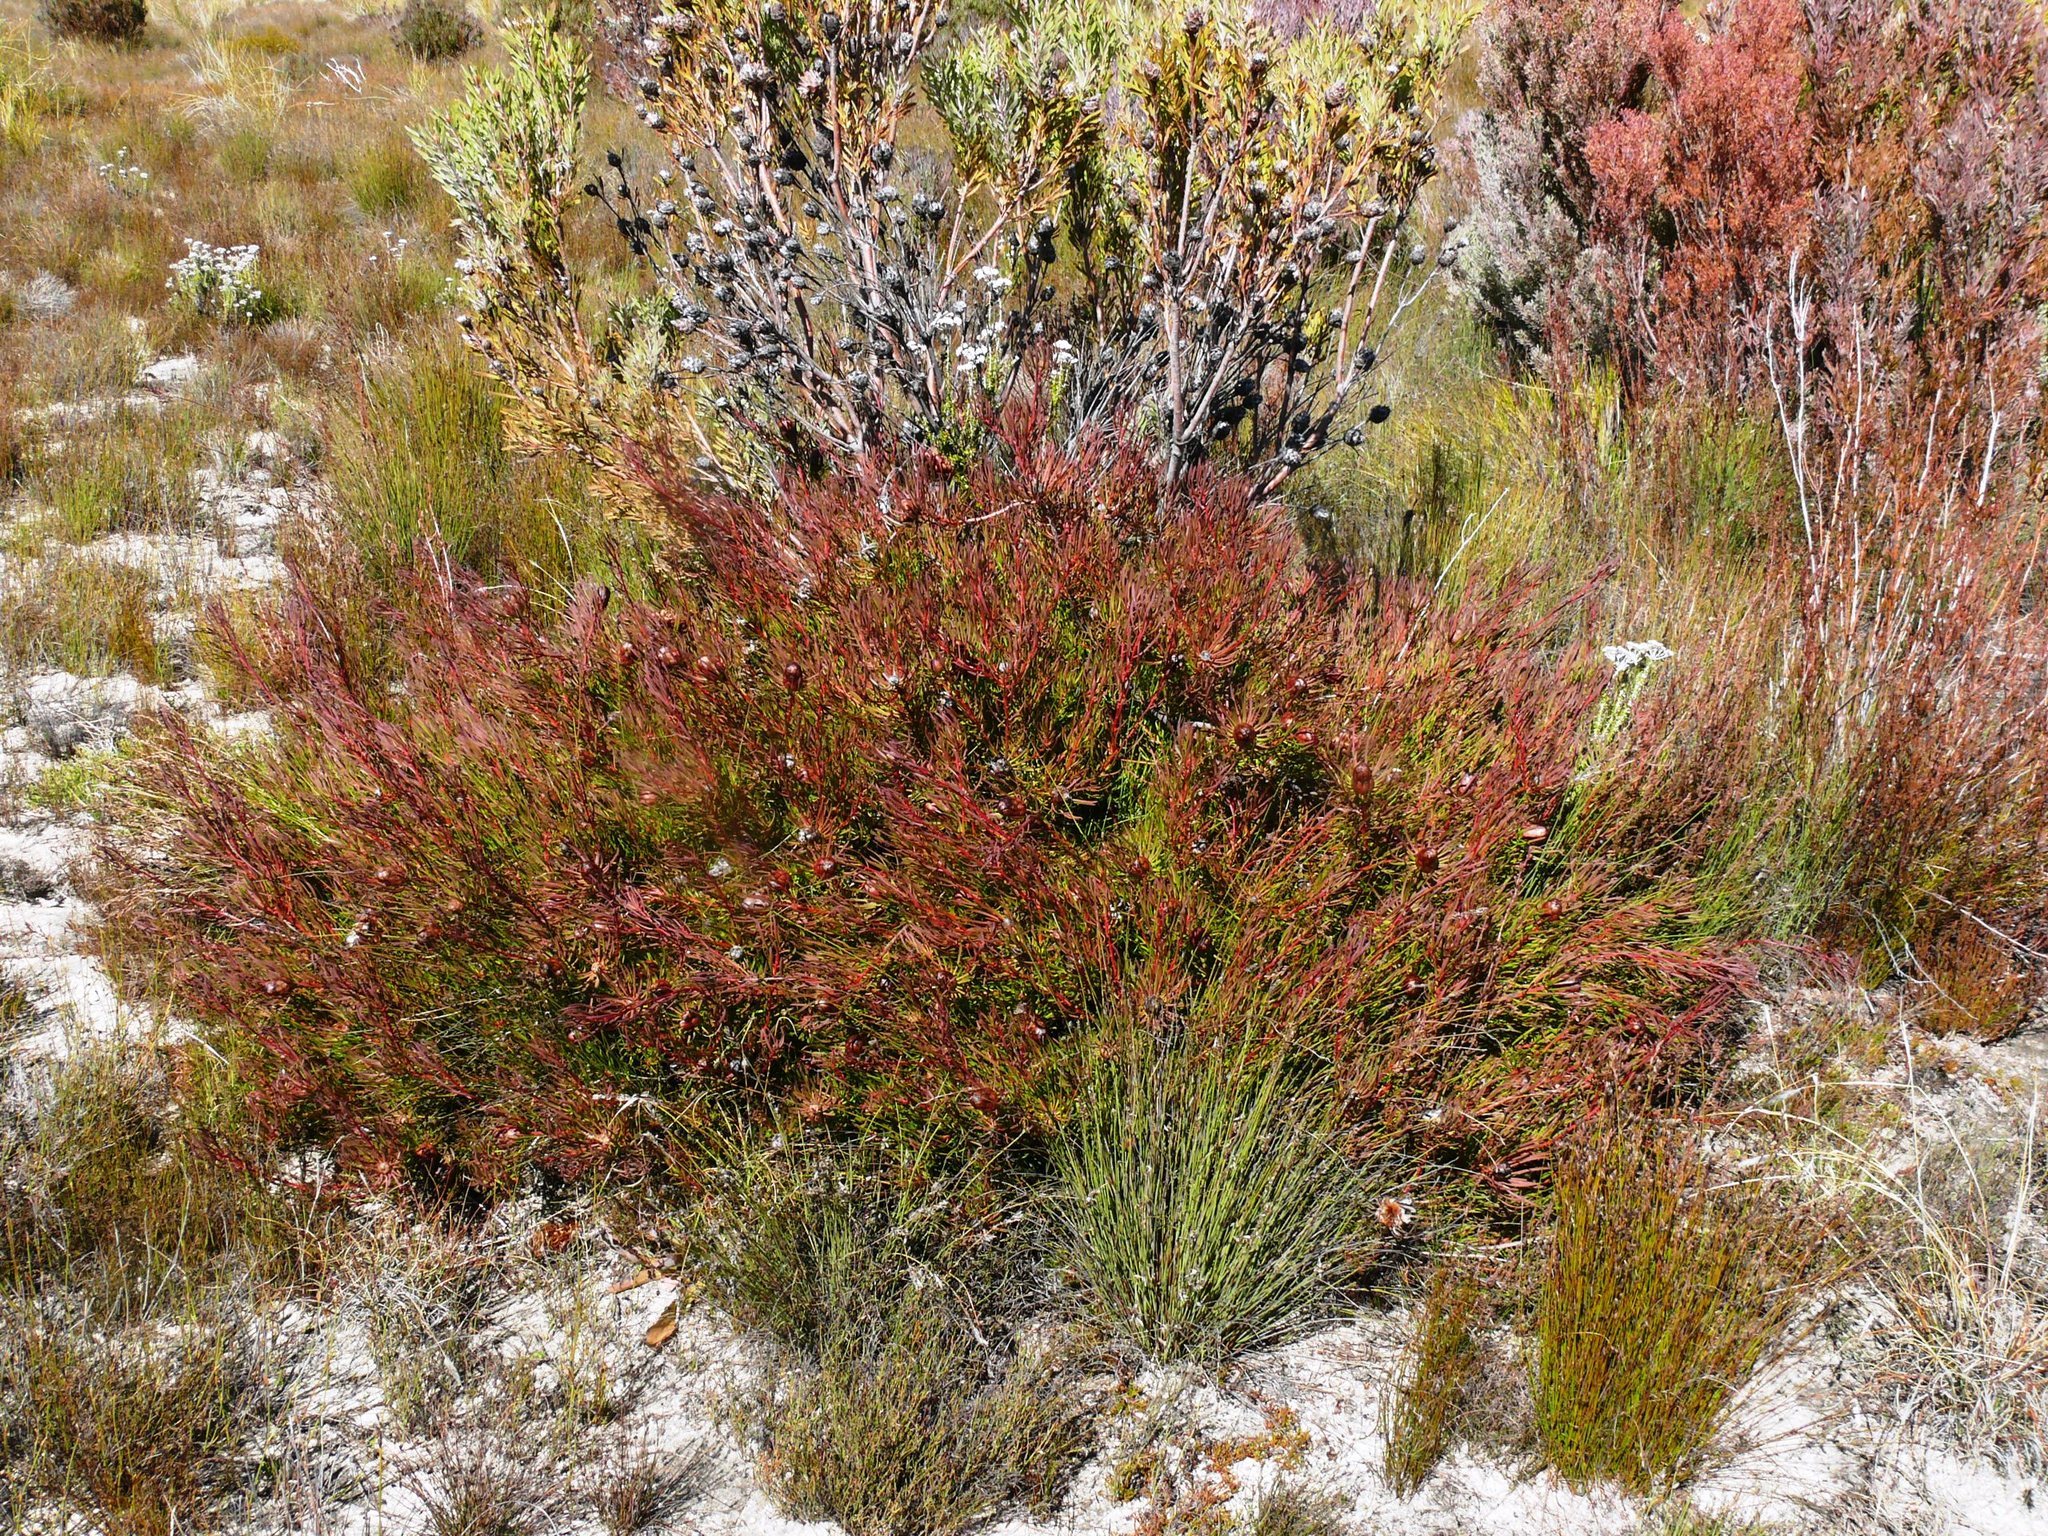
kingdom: Plantae
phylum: Tracheophyta
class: Magnoliopsida
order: Proteales
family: Proteaceae
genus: Protea
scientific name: Protea
